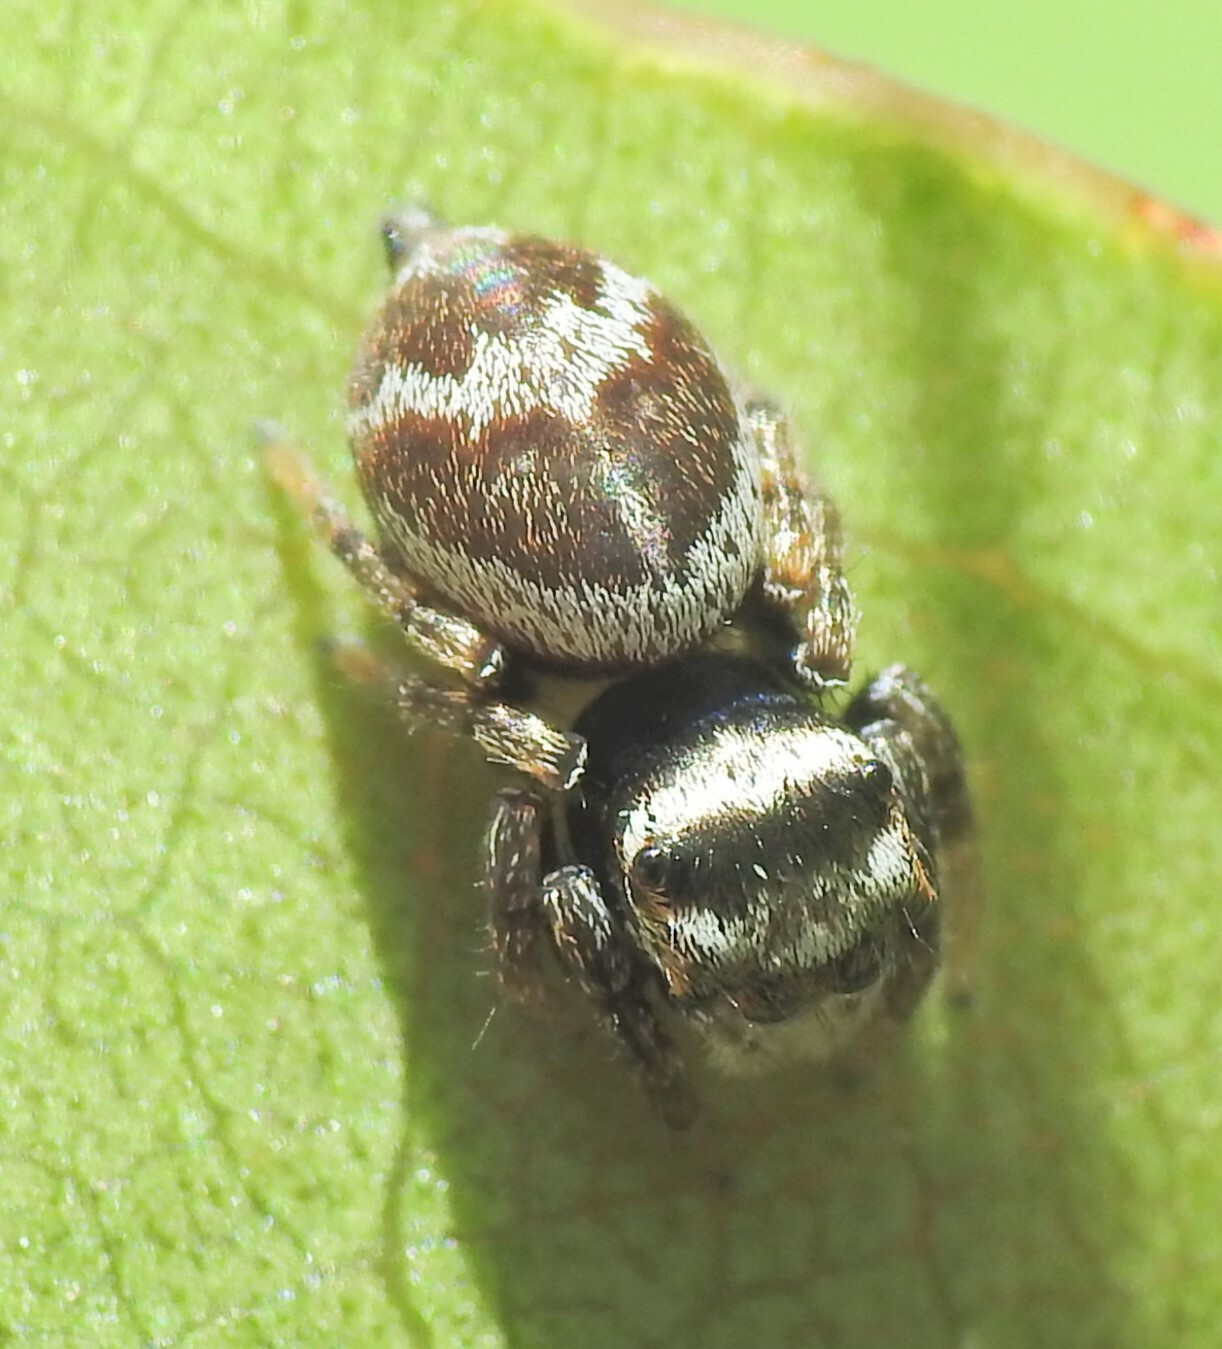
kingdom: Animalia
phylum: Arthropoda
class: Arachnida
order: Araneae
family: Salticidae
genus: Euryattus
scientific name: Euryattus bleekeri
